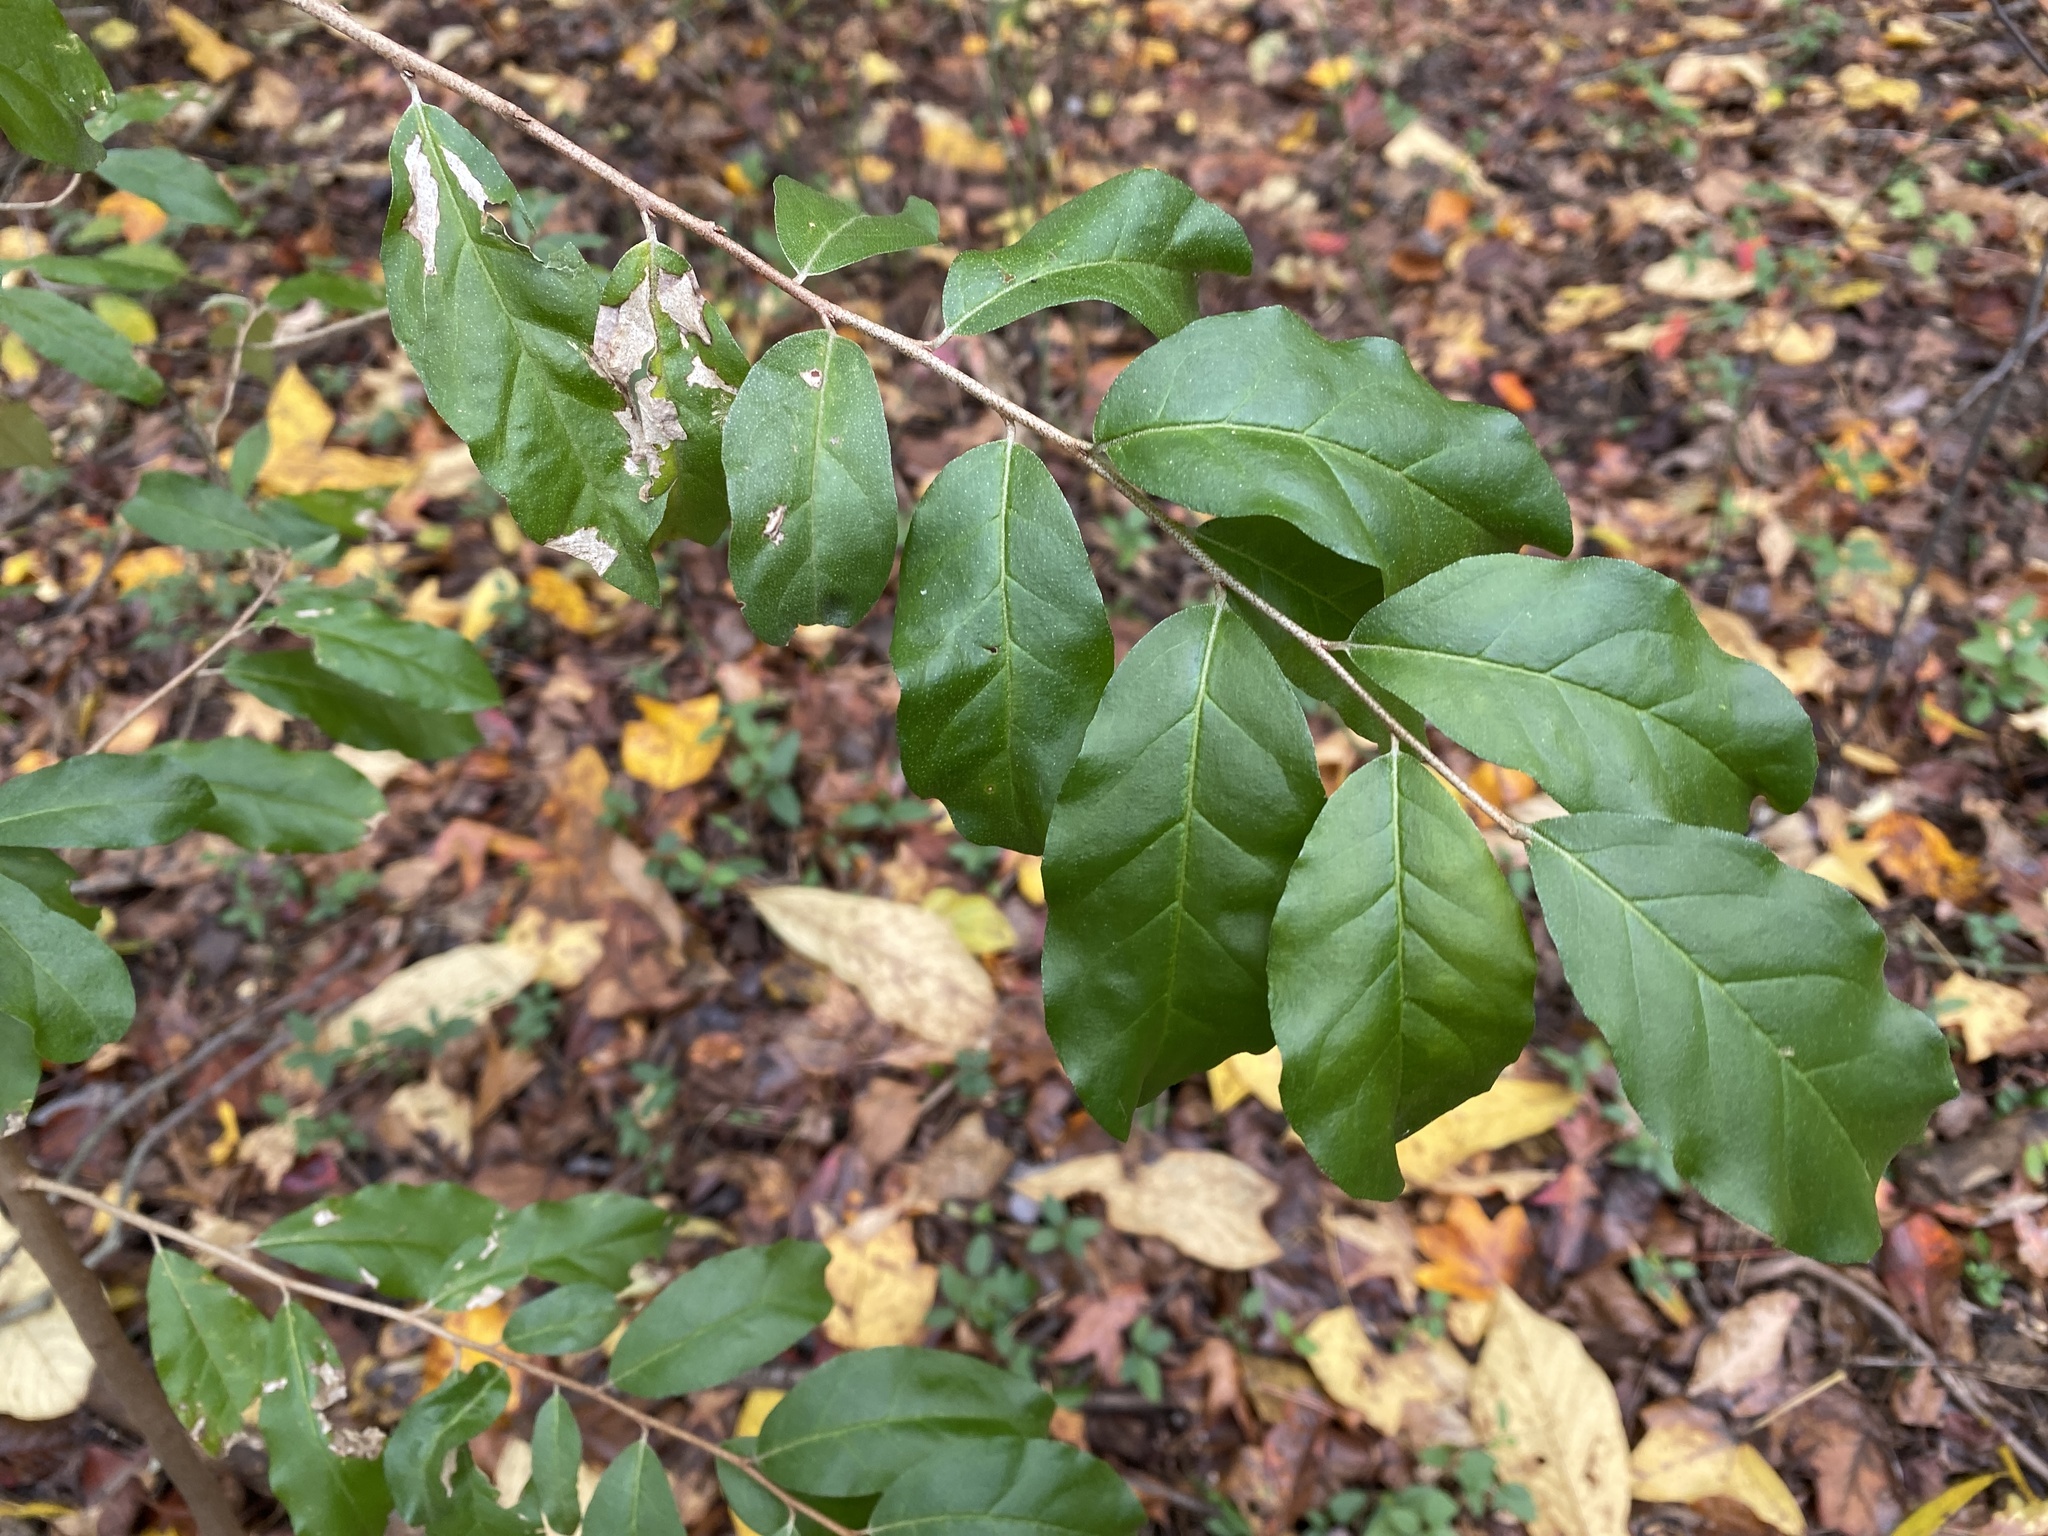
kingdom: Plantae
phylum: Tracheophyta
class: Magnoliopsida
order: Rosales
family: Elaeagnaceae
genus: Elaeagnus
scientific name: Elaeagnus umbellata
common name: Autumn olive
